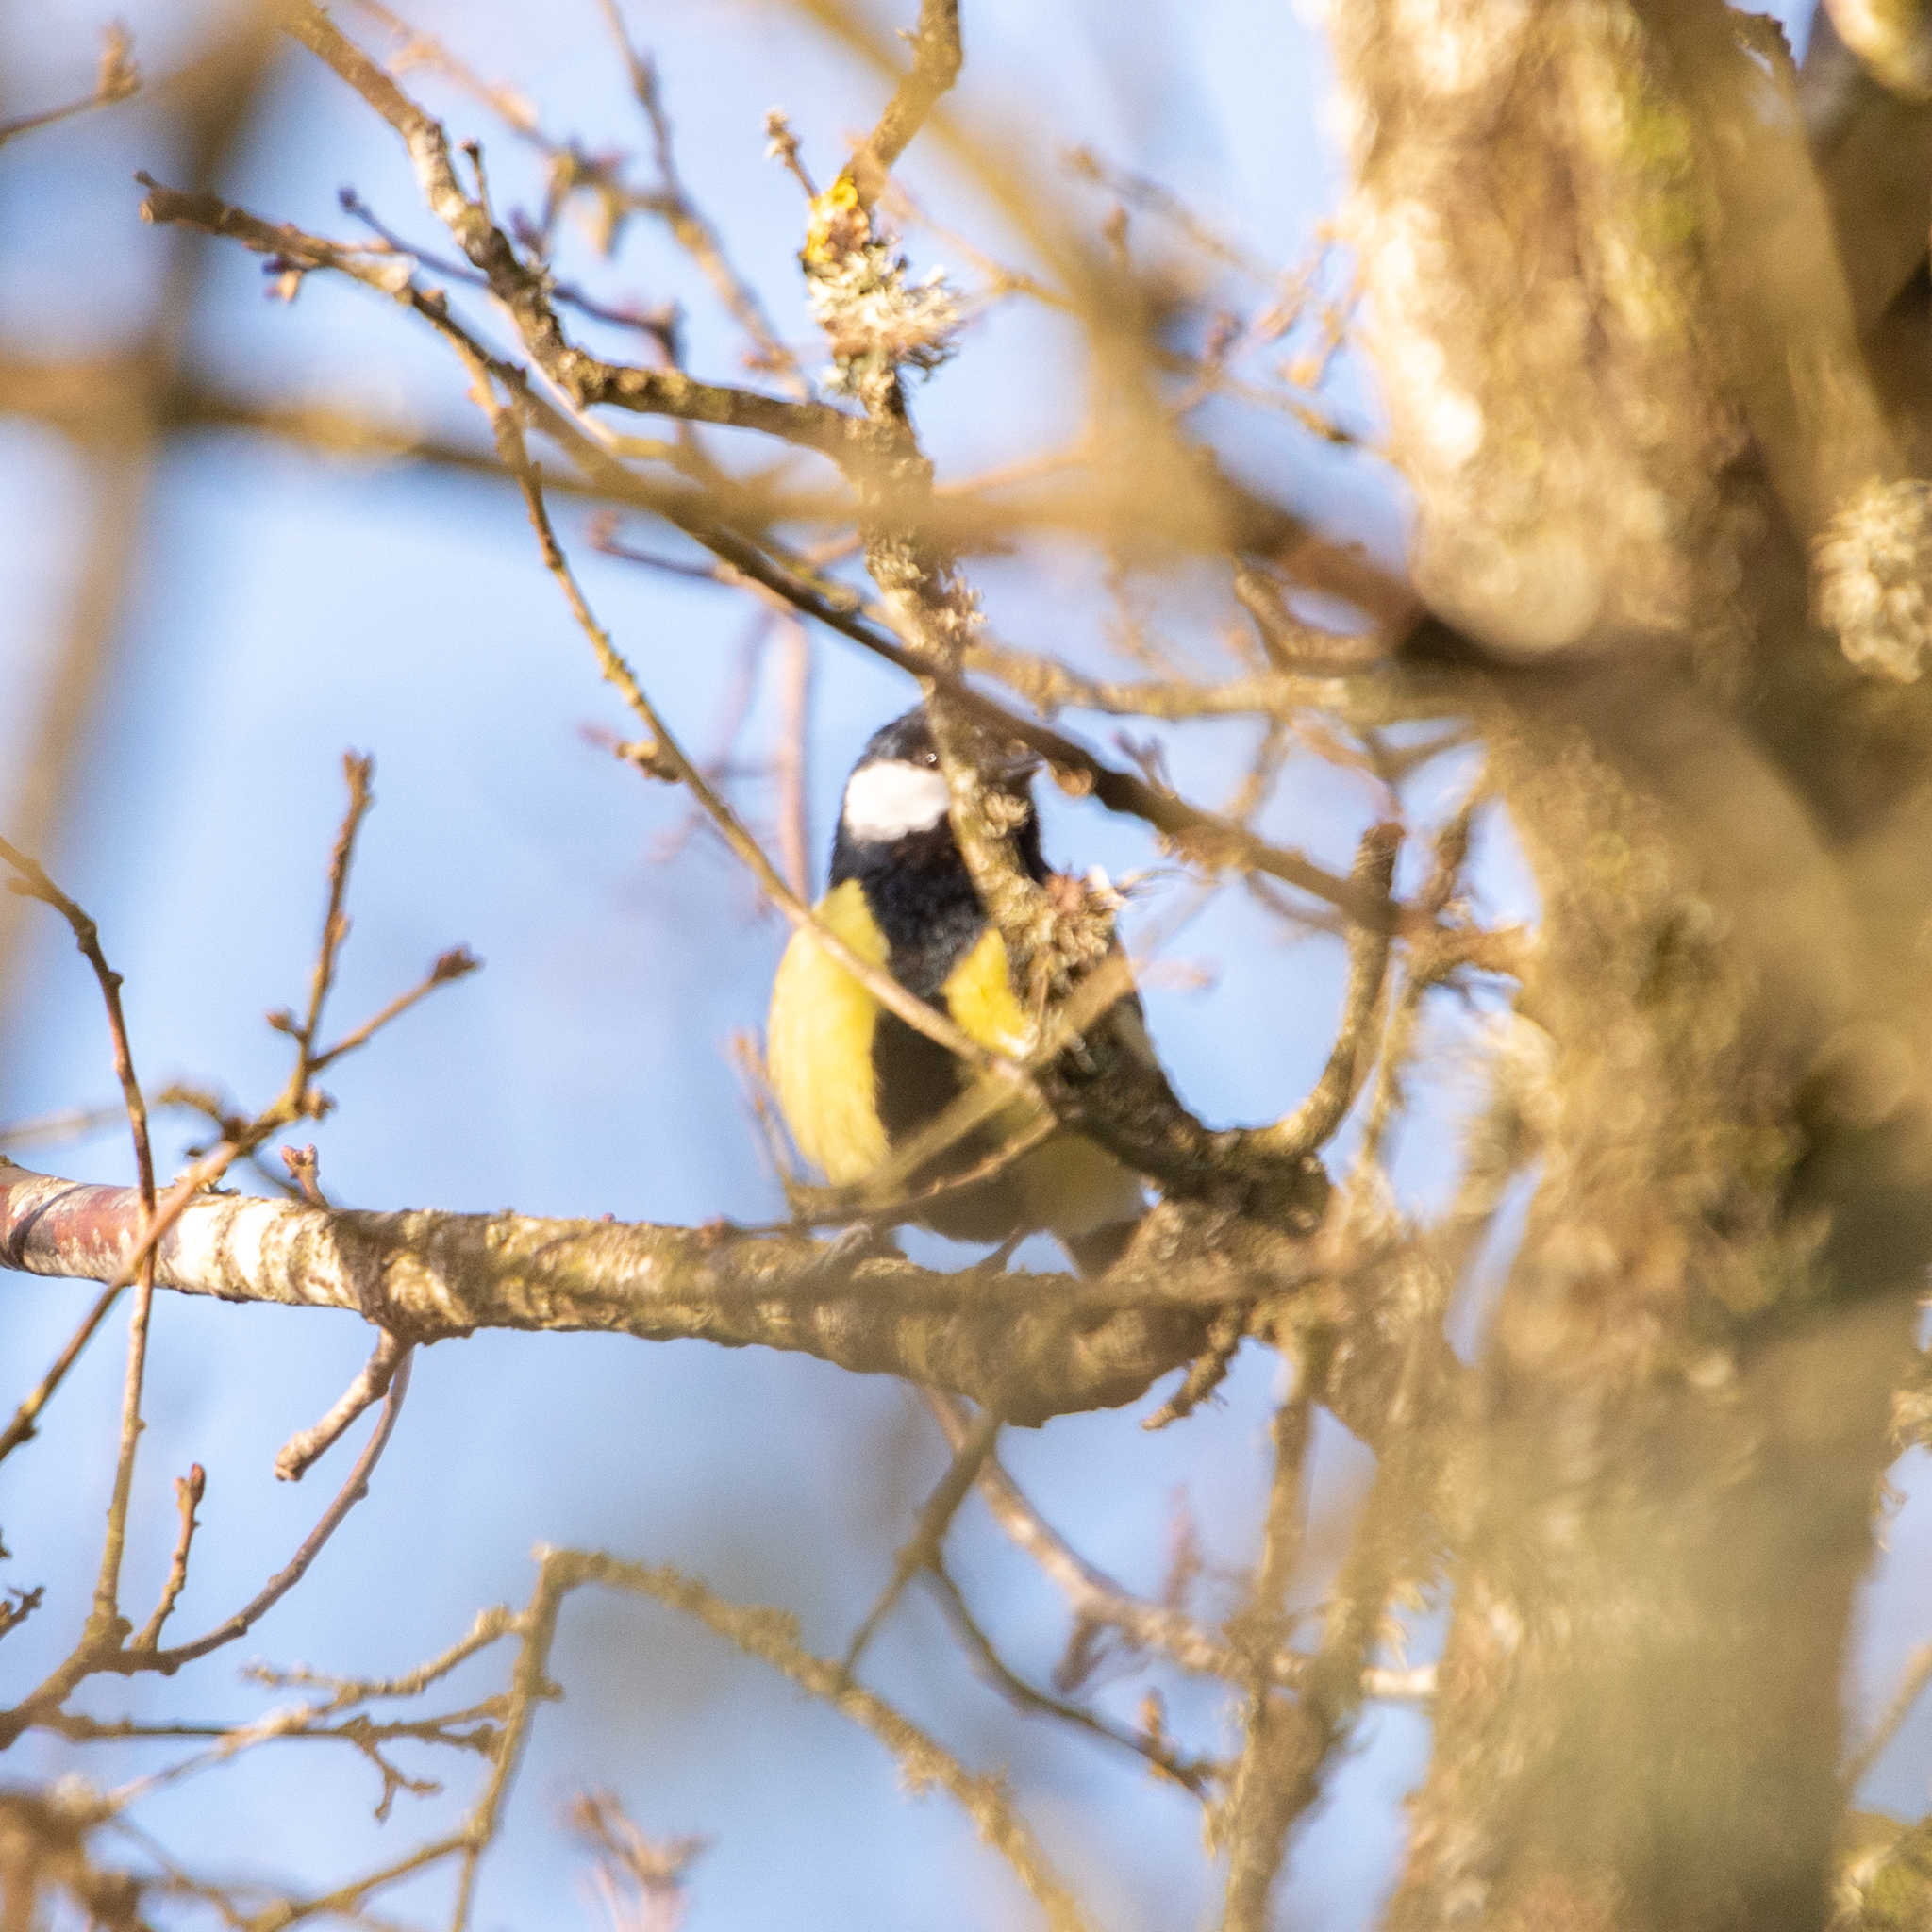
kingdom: Animalia
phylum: Chordata
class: Aves
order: Passeriformes
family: Paridae
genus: Parus
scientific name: Parus major
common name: Great tit
